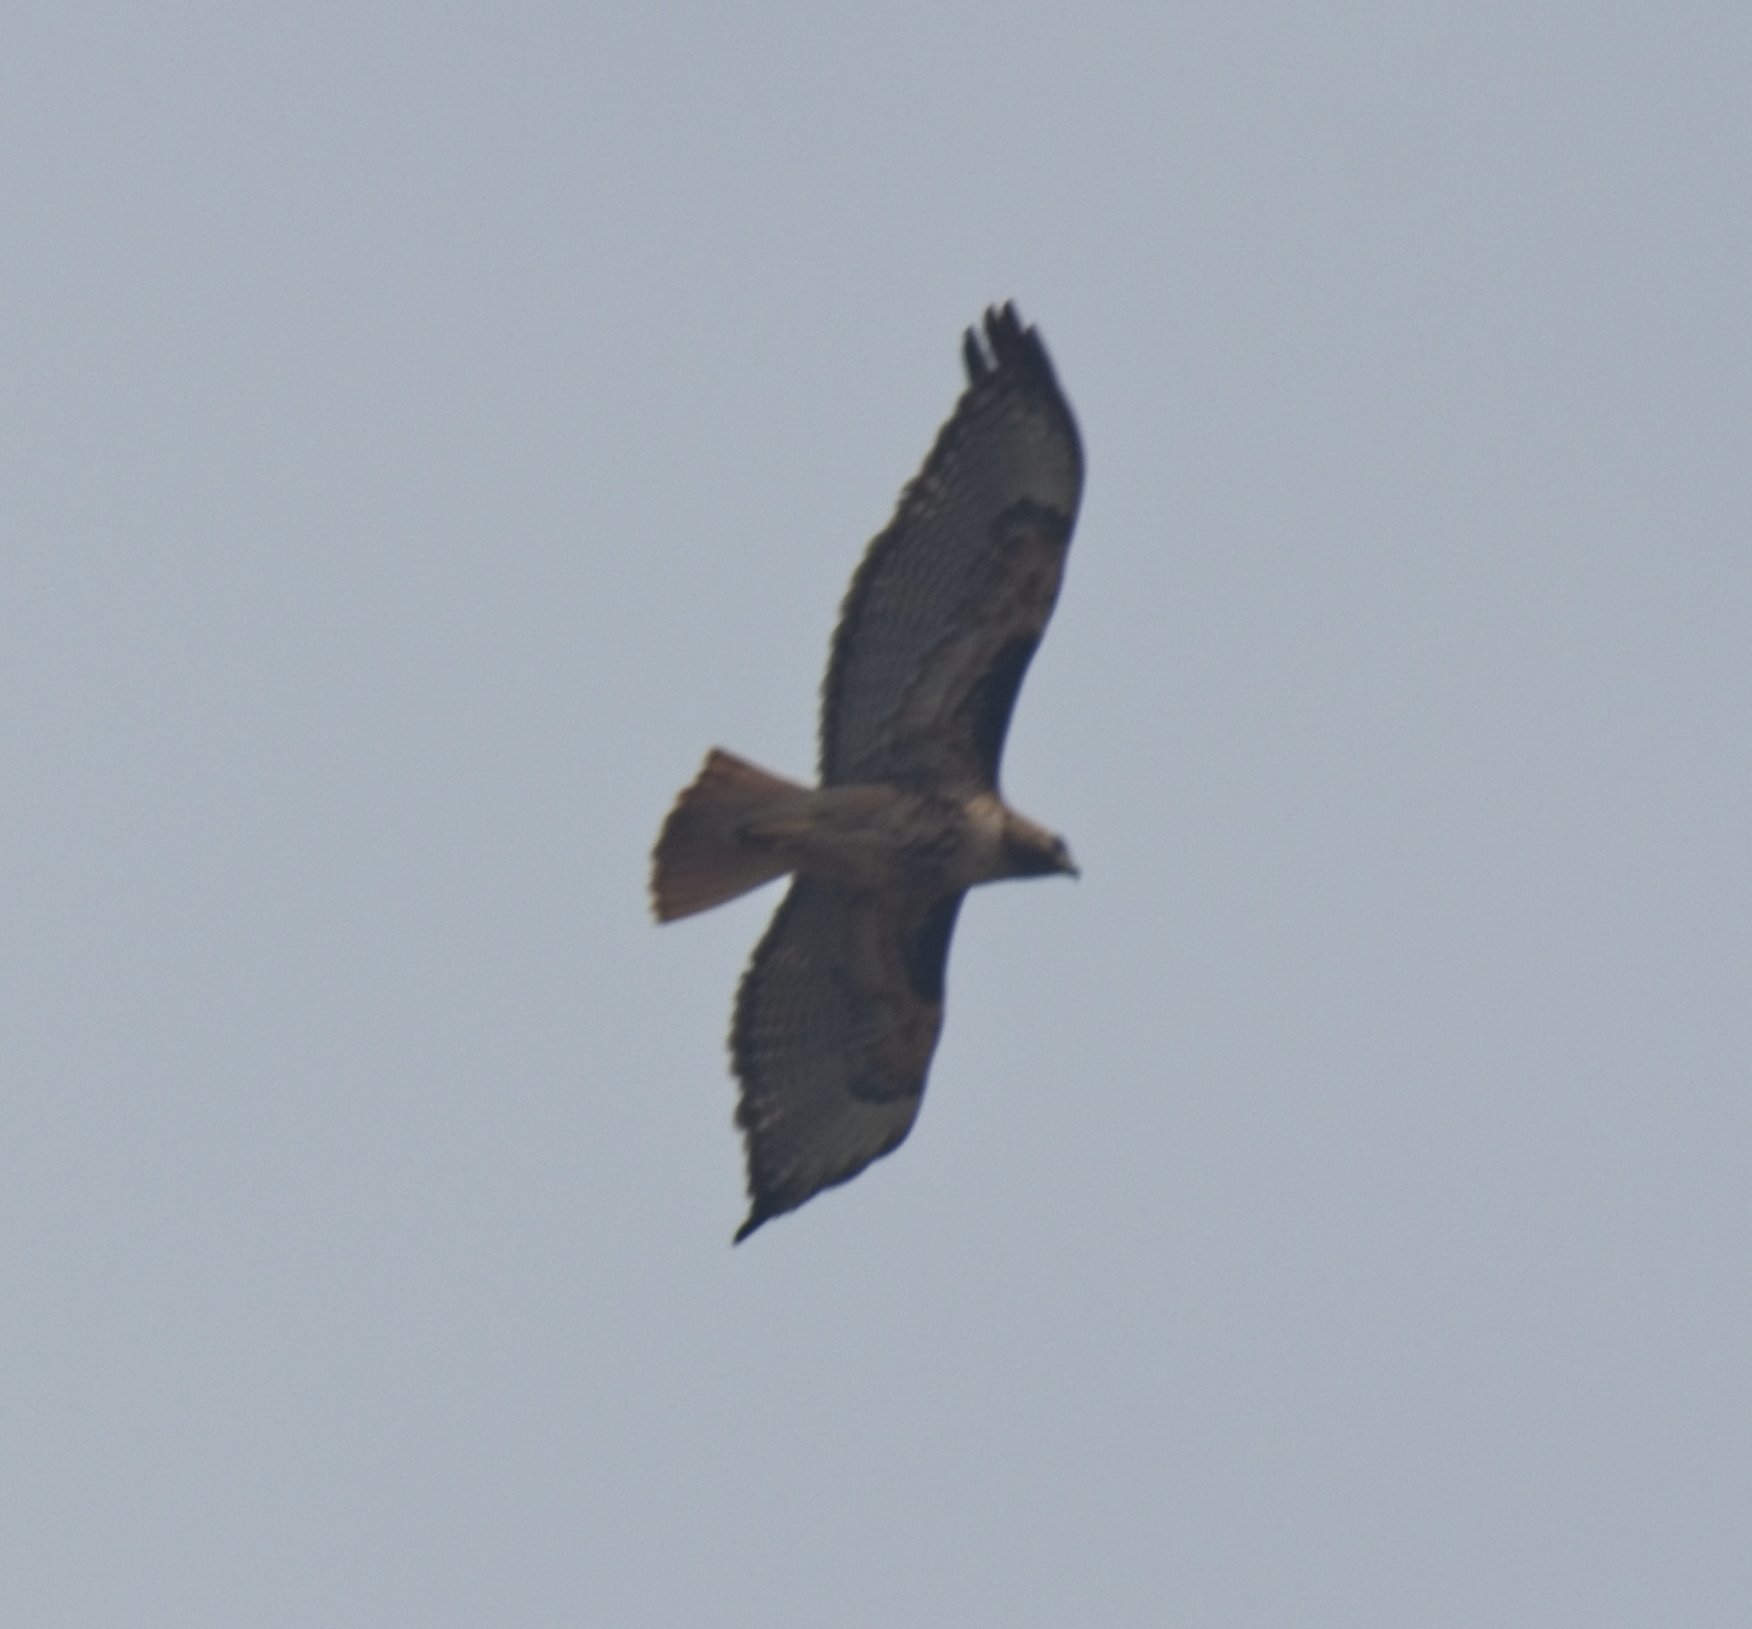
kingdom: Animalia
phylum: Chordata
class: Aves
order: Accipitriformes
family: Accipitridae
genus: Buteo
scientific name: Buteo jamaicensis
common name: Red-tailed hawk
